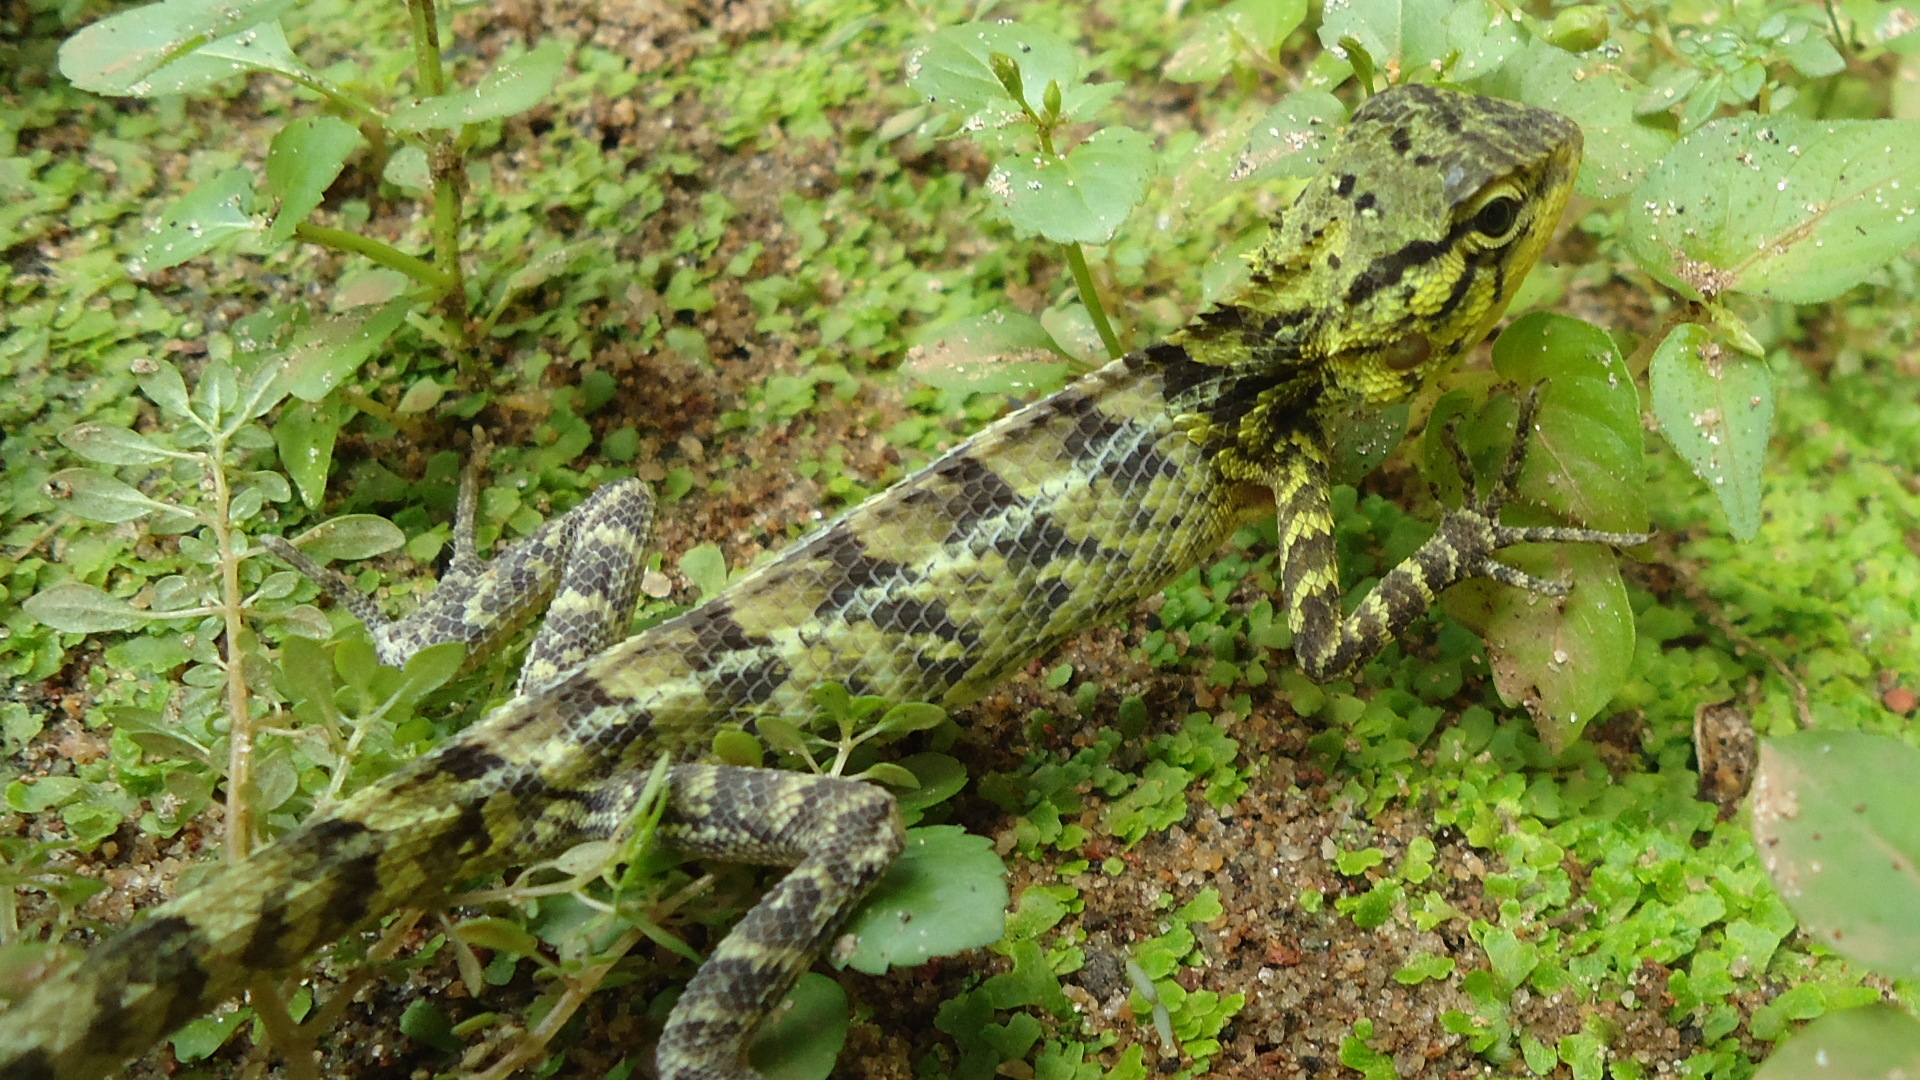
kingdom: Animalia
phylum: Chordata
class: Squamata
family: Agamidae
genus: Calotes
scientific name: Calotes versicolor
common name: Oriental garden lizard
